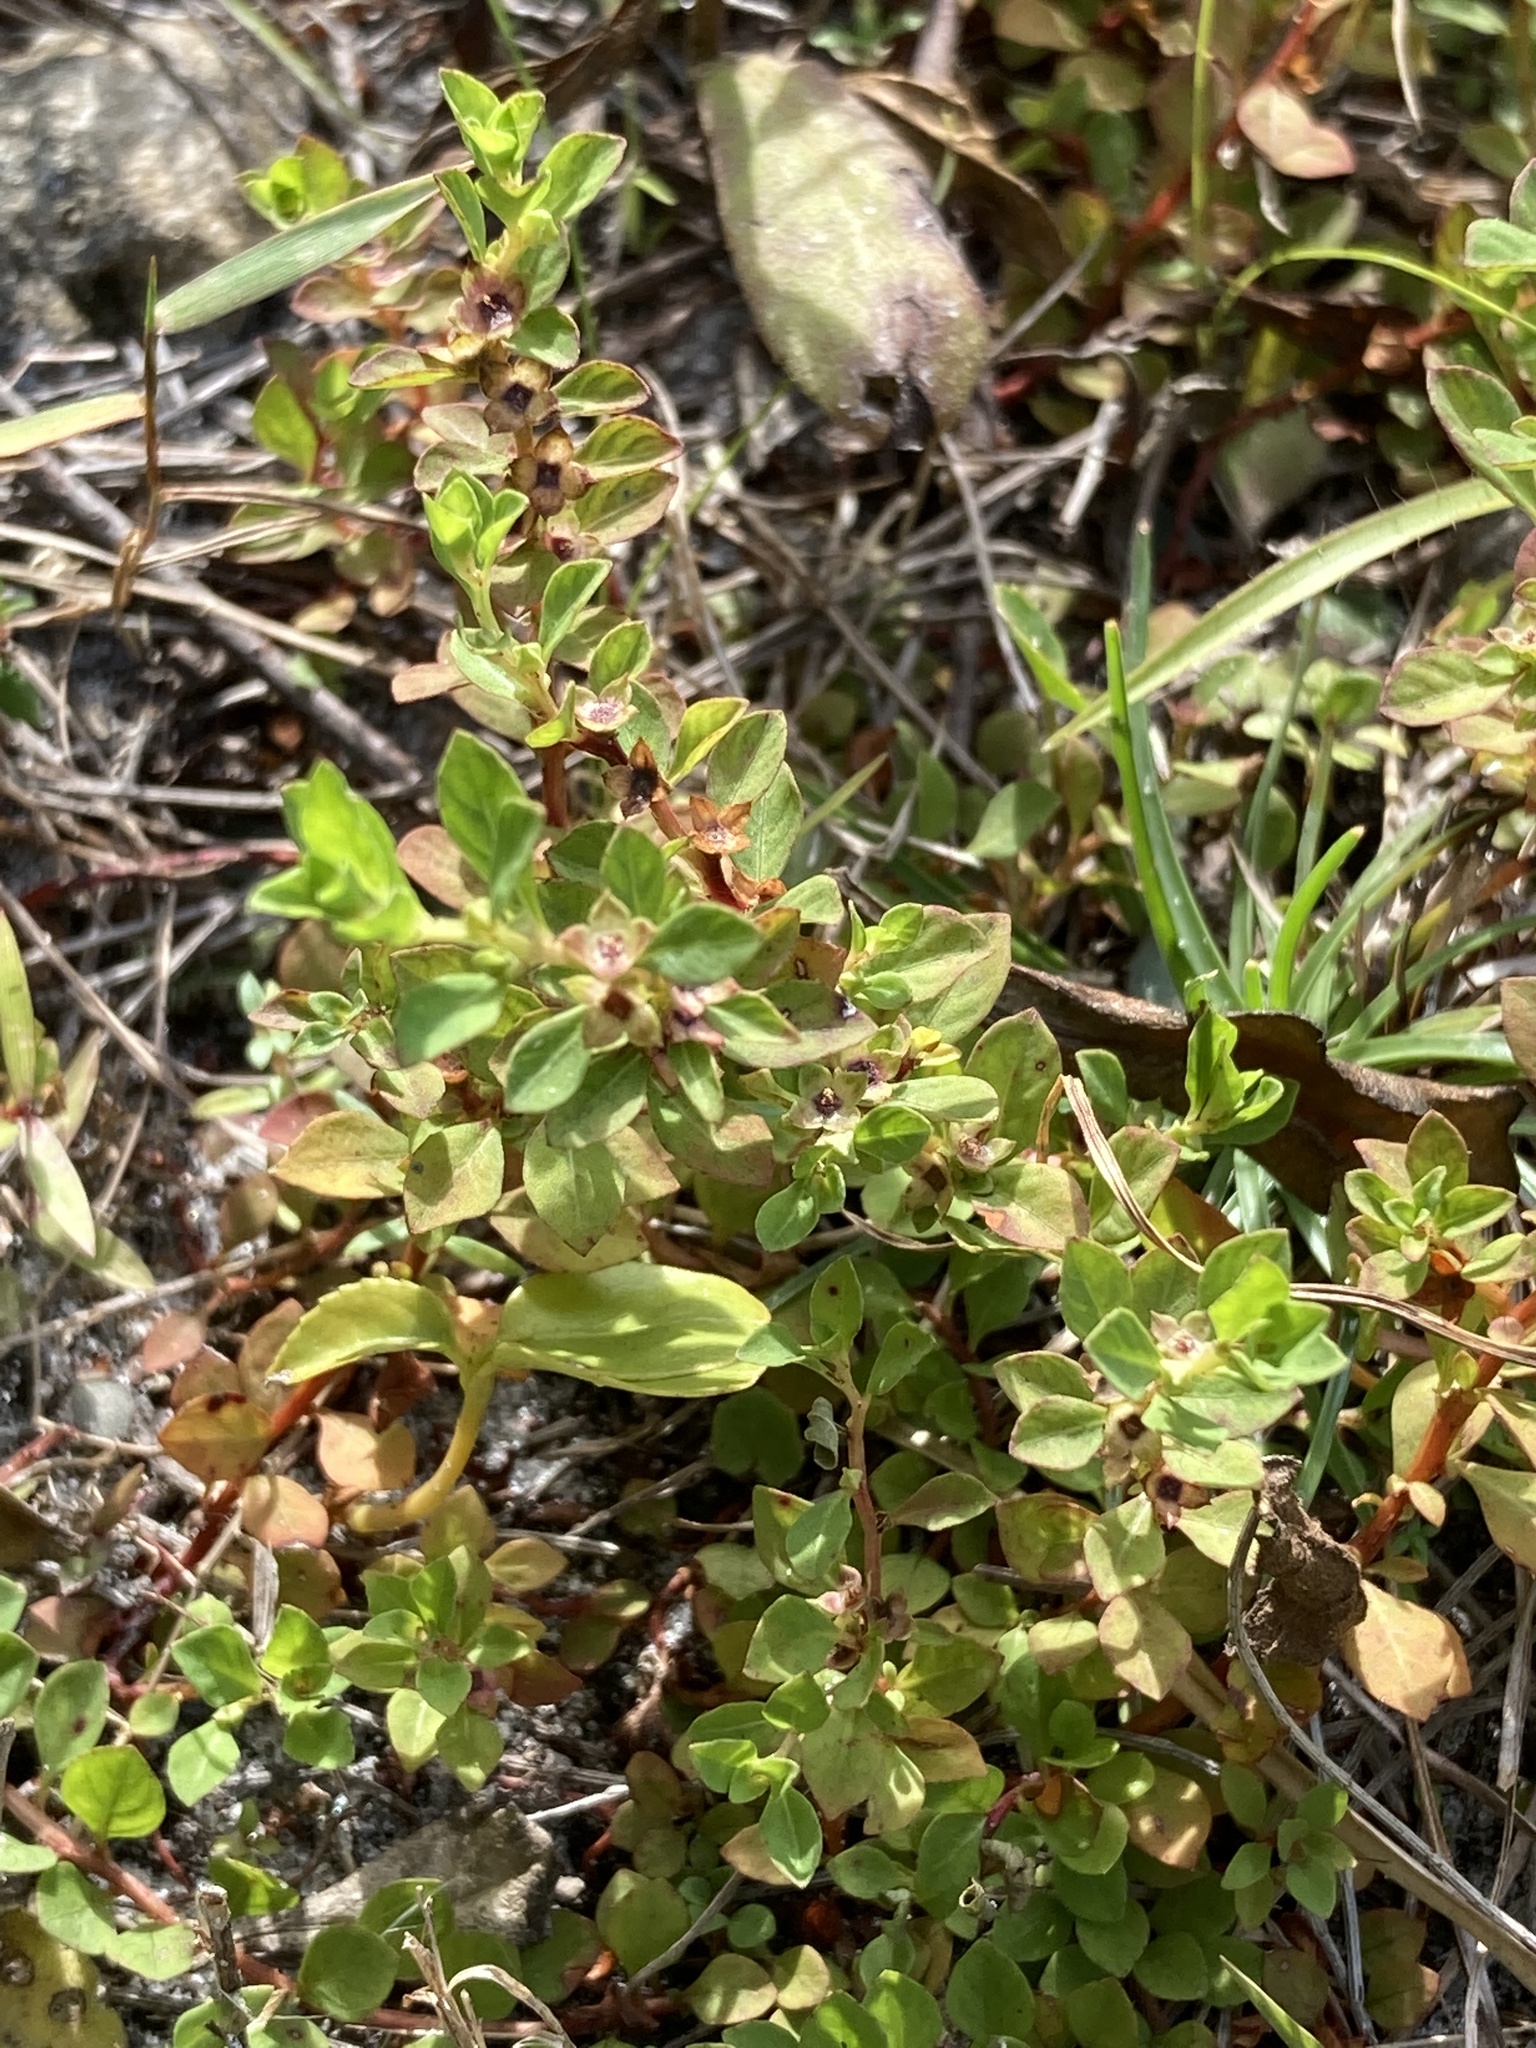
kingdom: Plantae
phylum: Tracheophyta
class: Magnoliopsida
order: Myrtales
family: Onagraceae
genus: Ludwigia
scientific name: Ludwigia microcarpa
